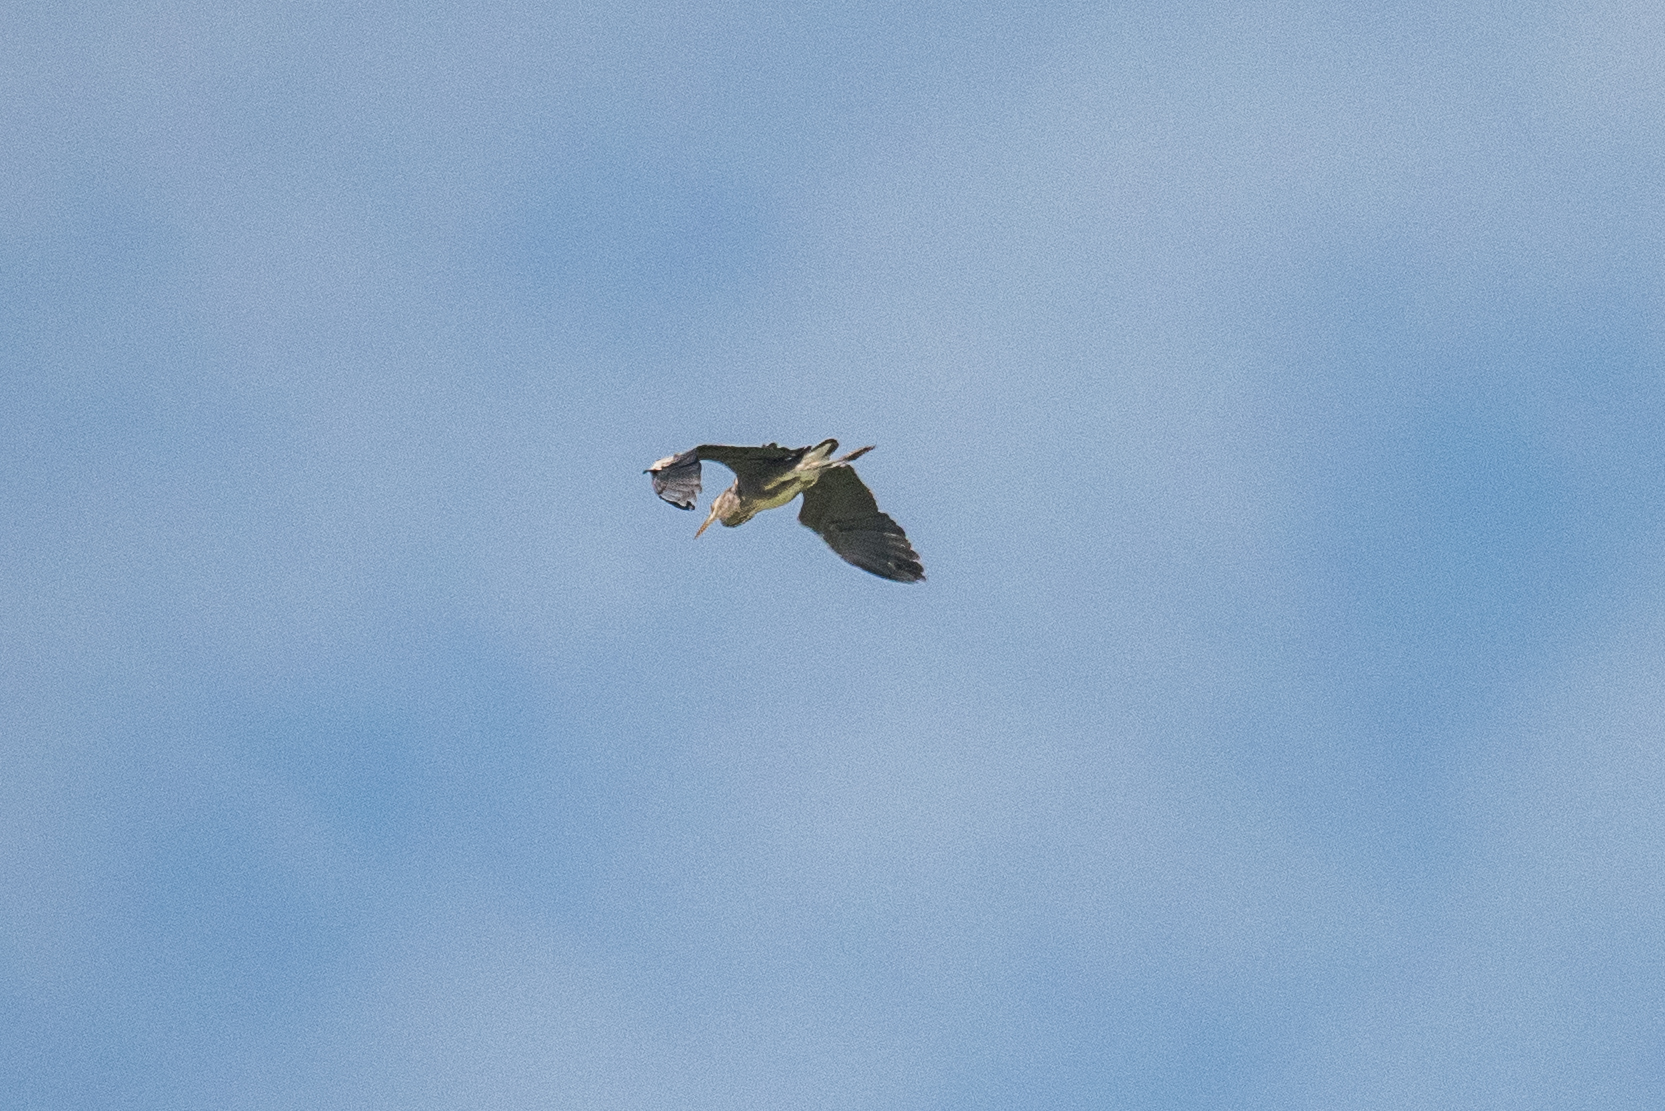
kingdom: Animalia
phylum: Chordata
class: Aves
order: Pelecaniformes
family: Ardeidae
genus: Ardea
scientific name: Ardea cinerea
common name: Grey heron
